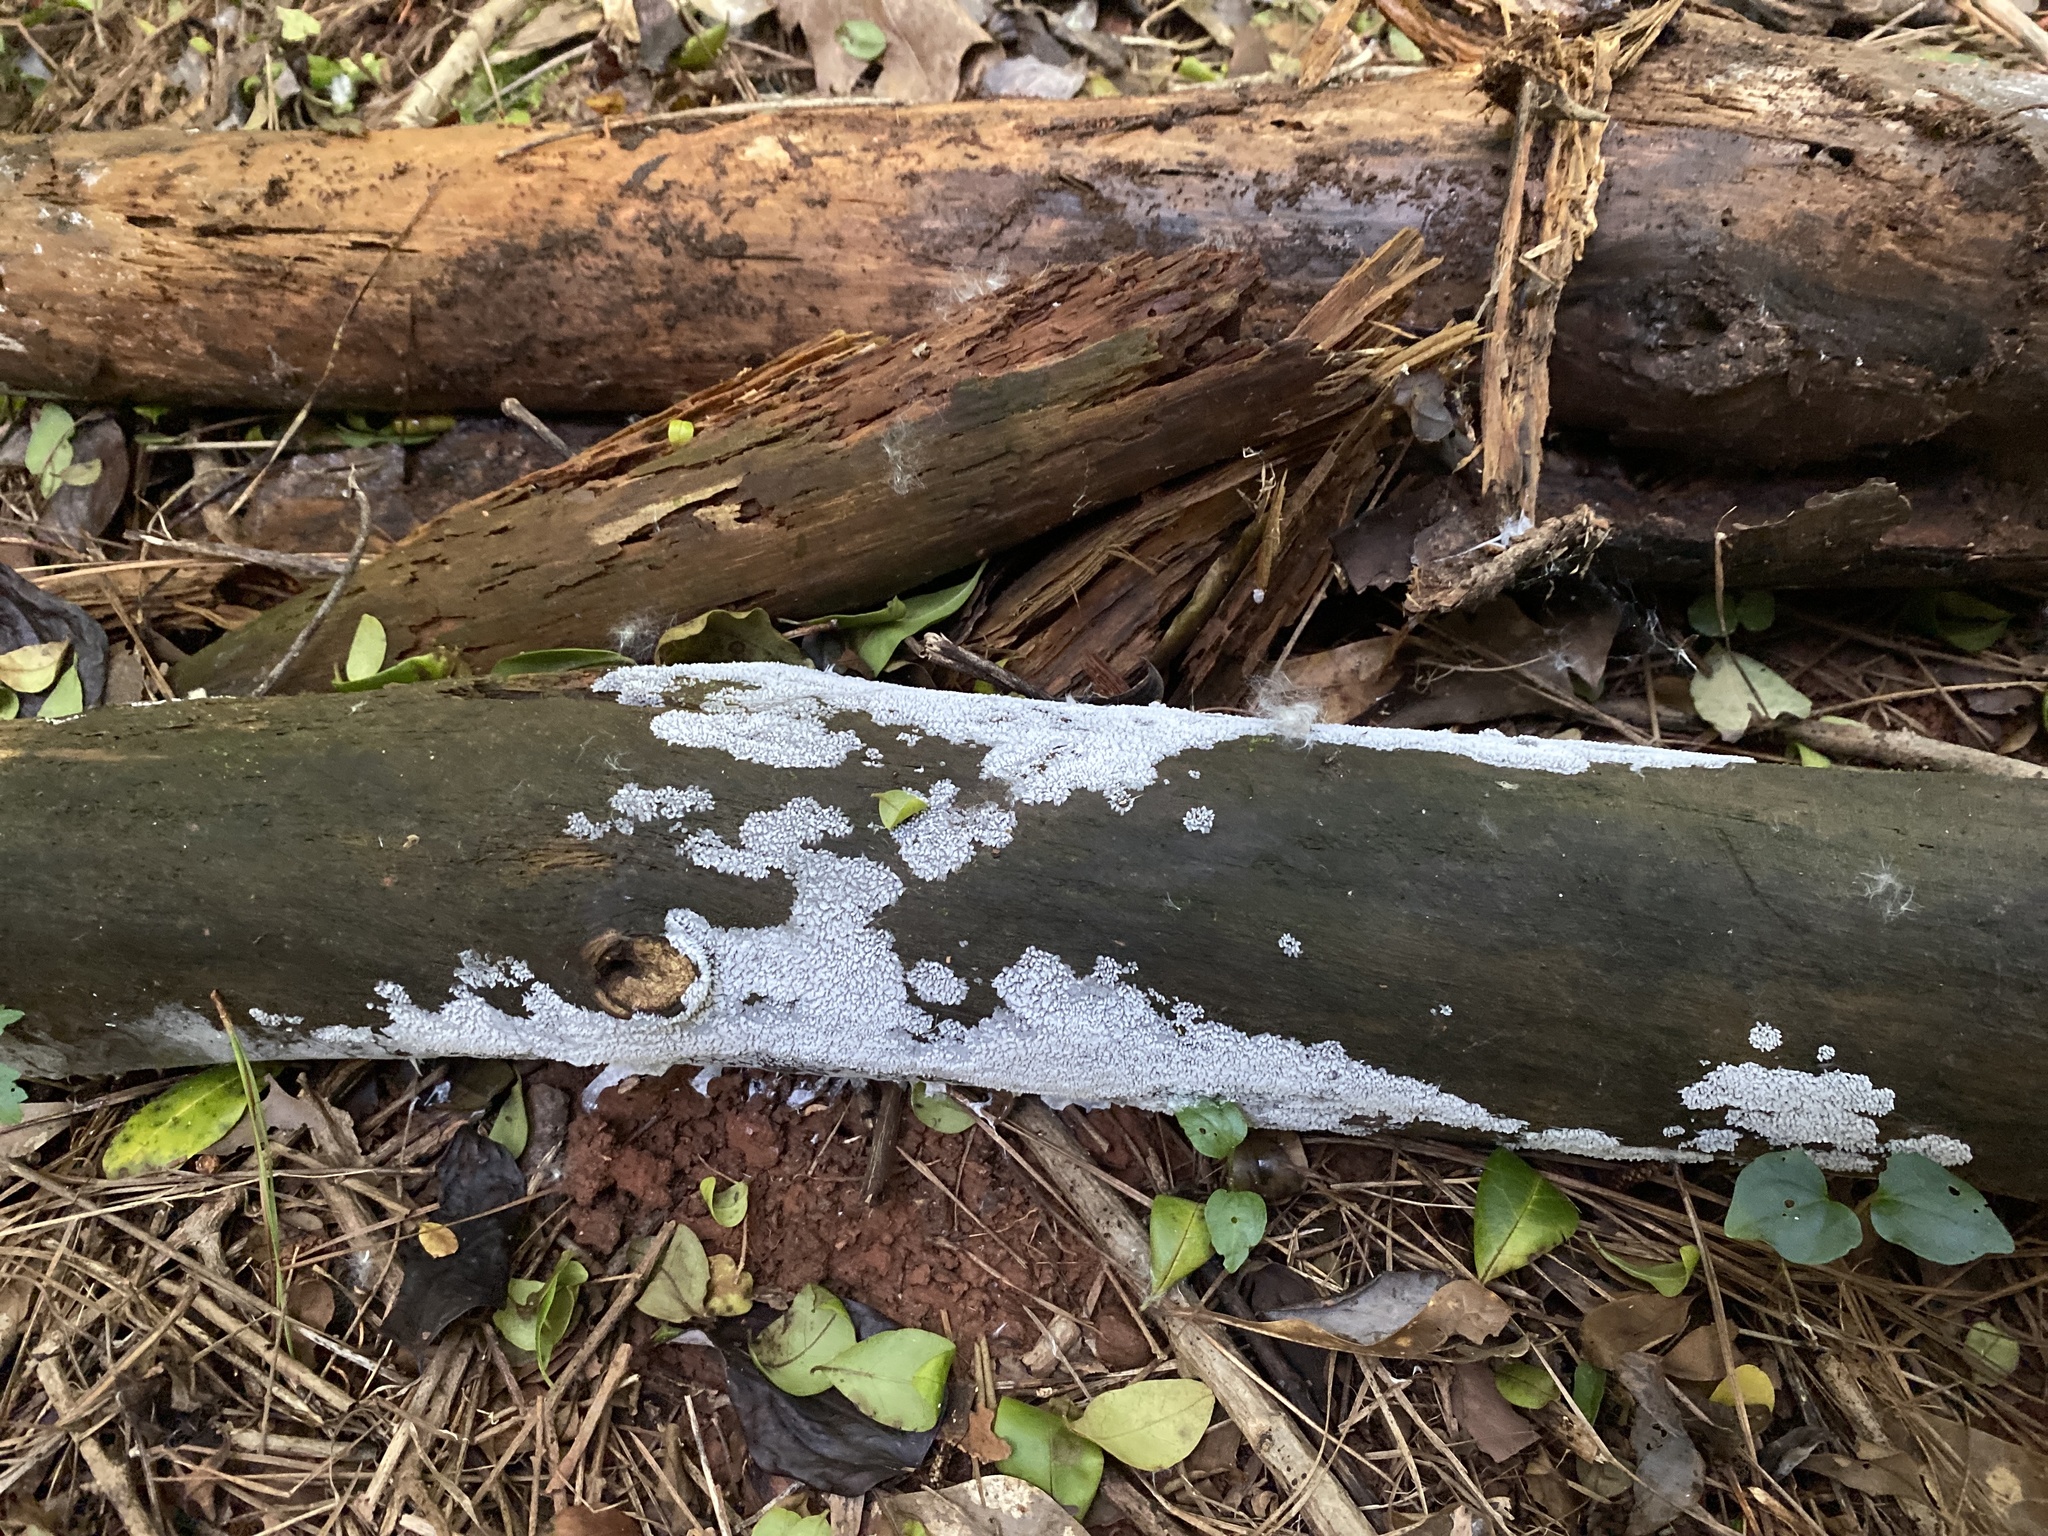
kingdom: Protozoa
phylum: Mycetozoa
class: Protosteliomycetes
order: Ceratiomyxales
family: Ceratiomyxaceae
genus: Ceratiomyxa
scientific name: Ceratiomyxa fruticulosa
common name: Honeycomb coral slime mold
